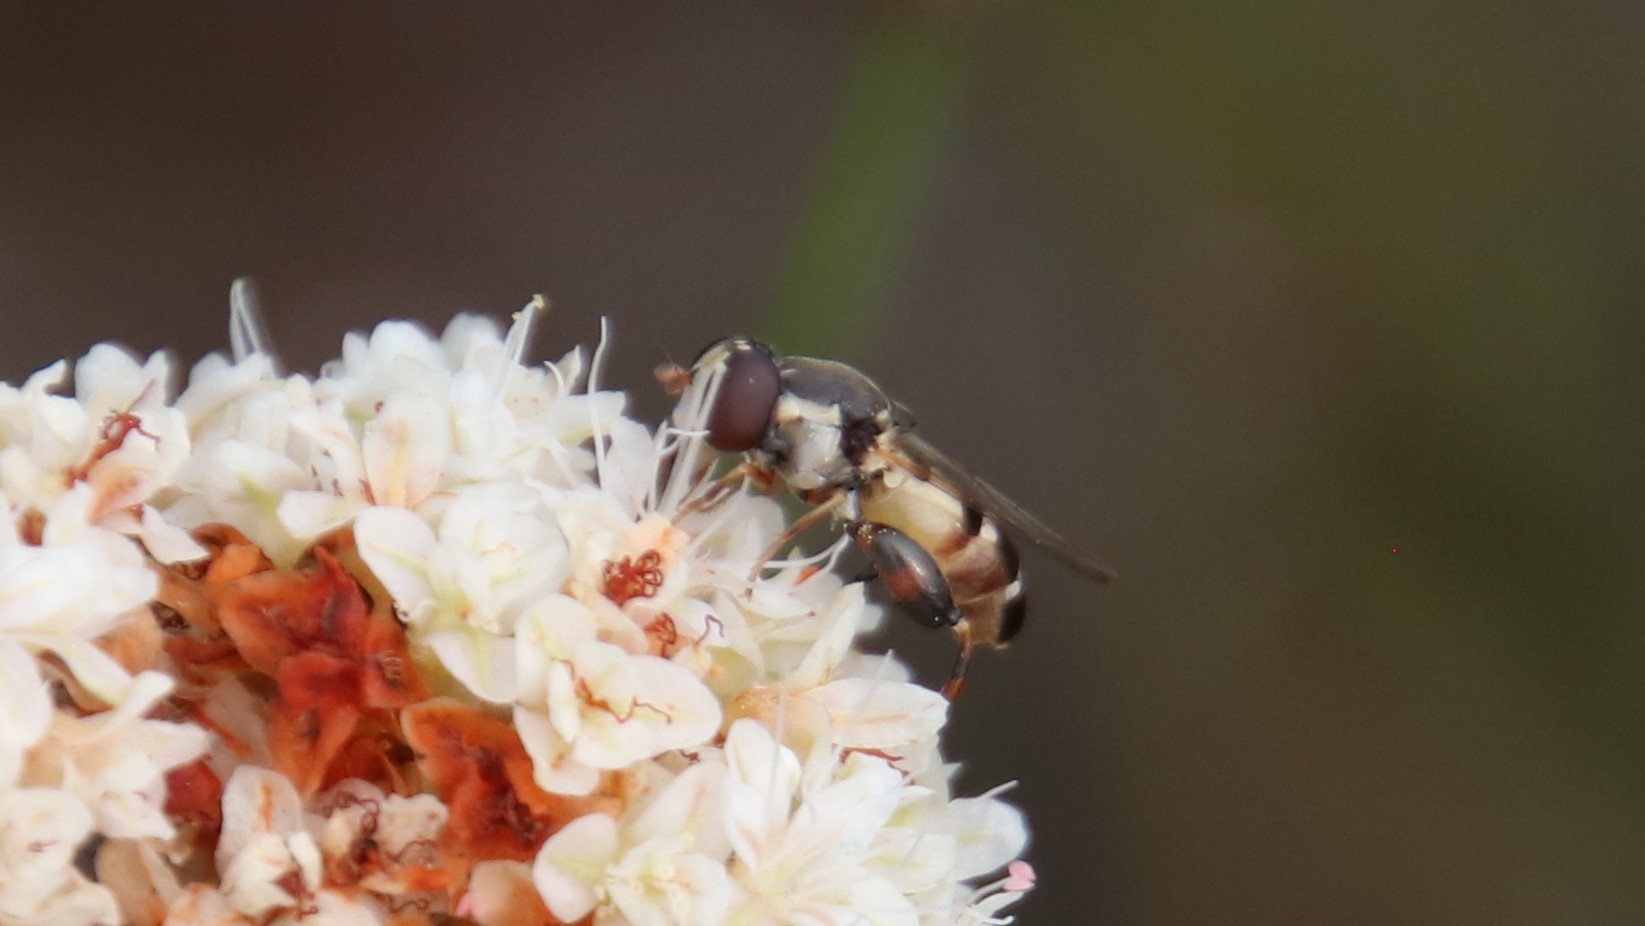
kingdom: Animalia
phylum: Arthropoda
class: Insecta
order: Diptera
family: Syrphidae
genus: Syritta
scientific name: Syritta pipiens
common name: Hover fly
